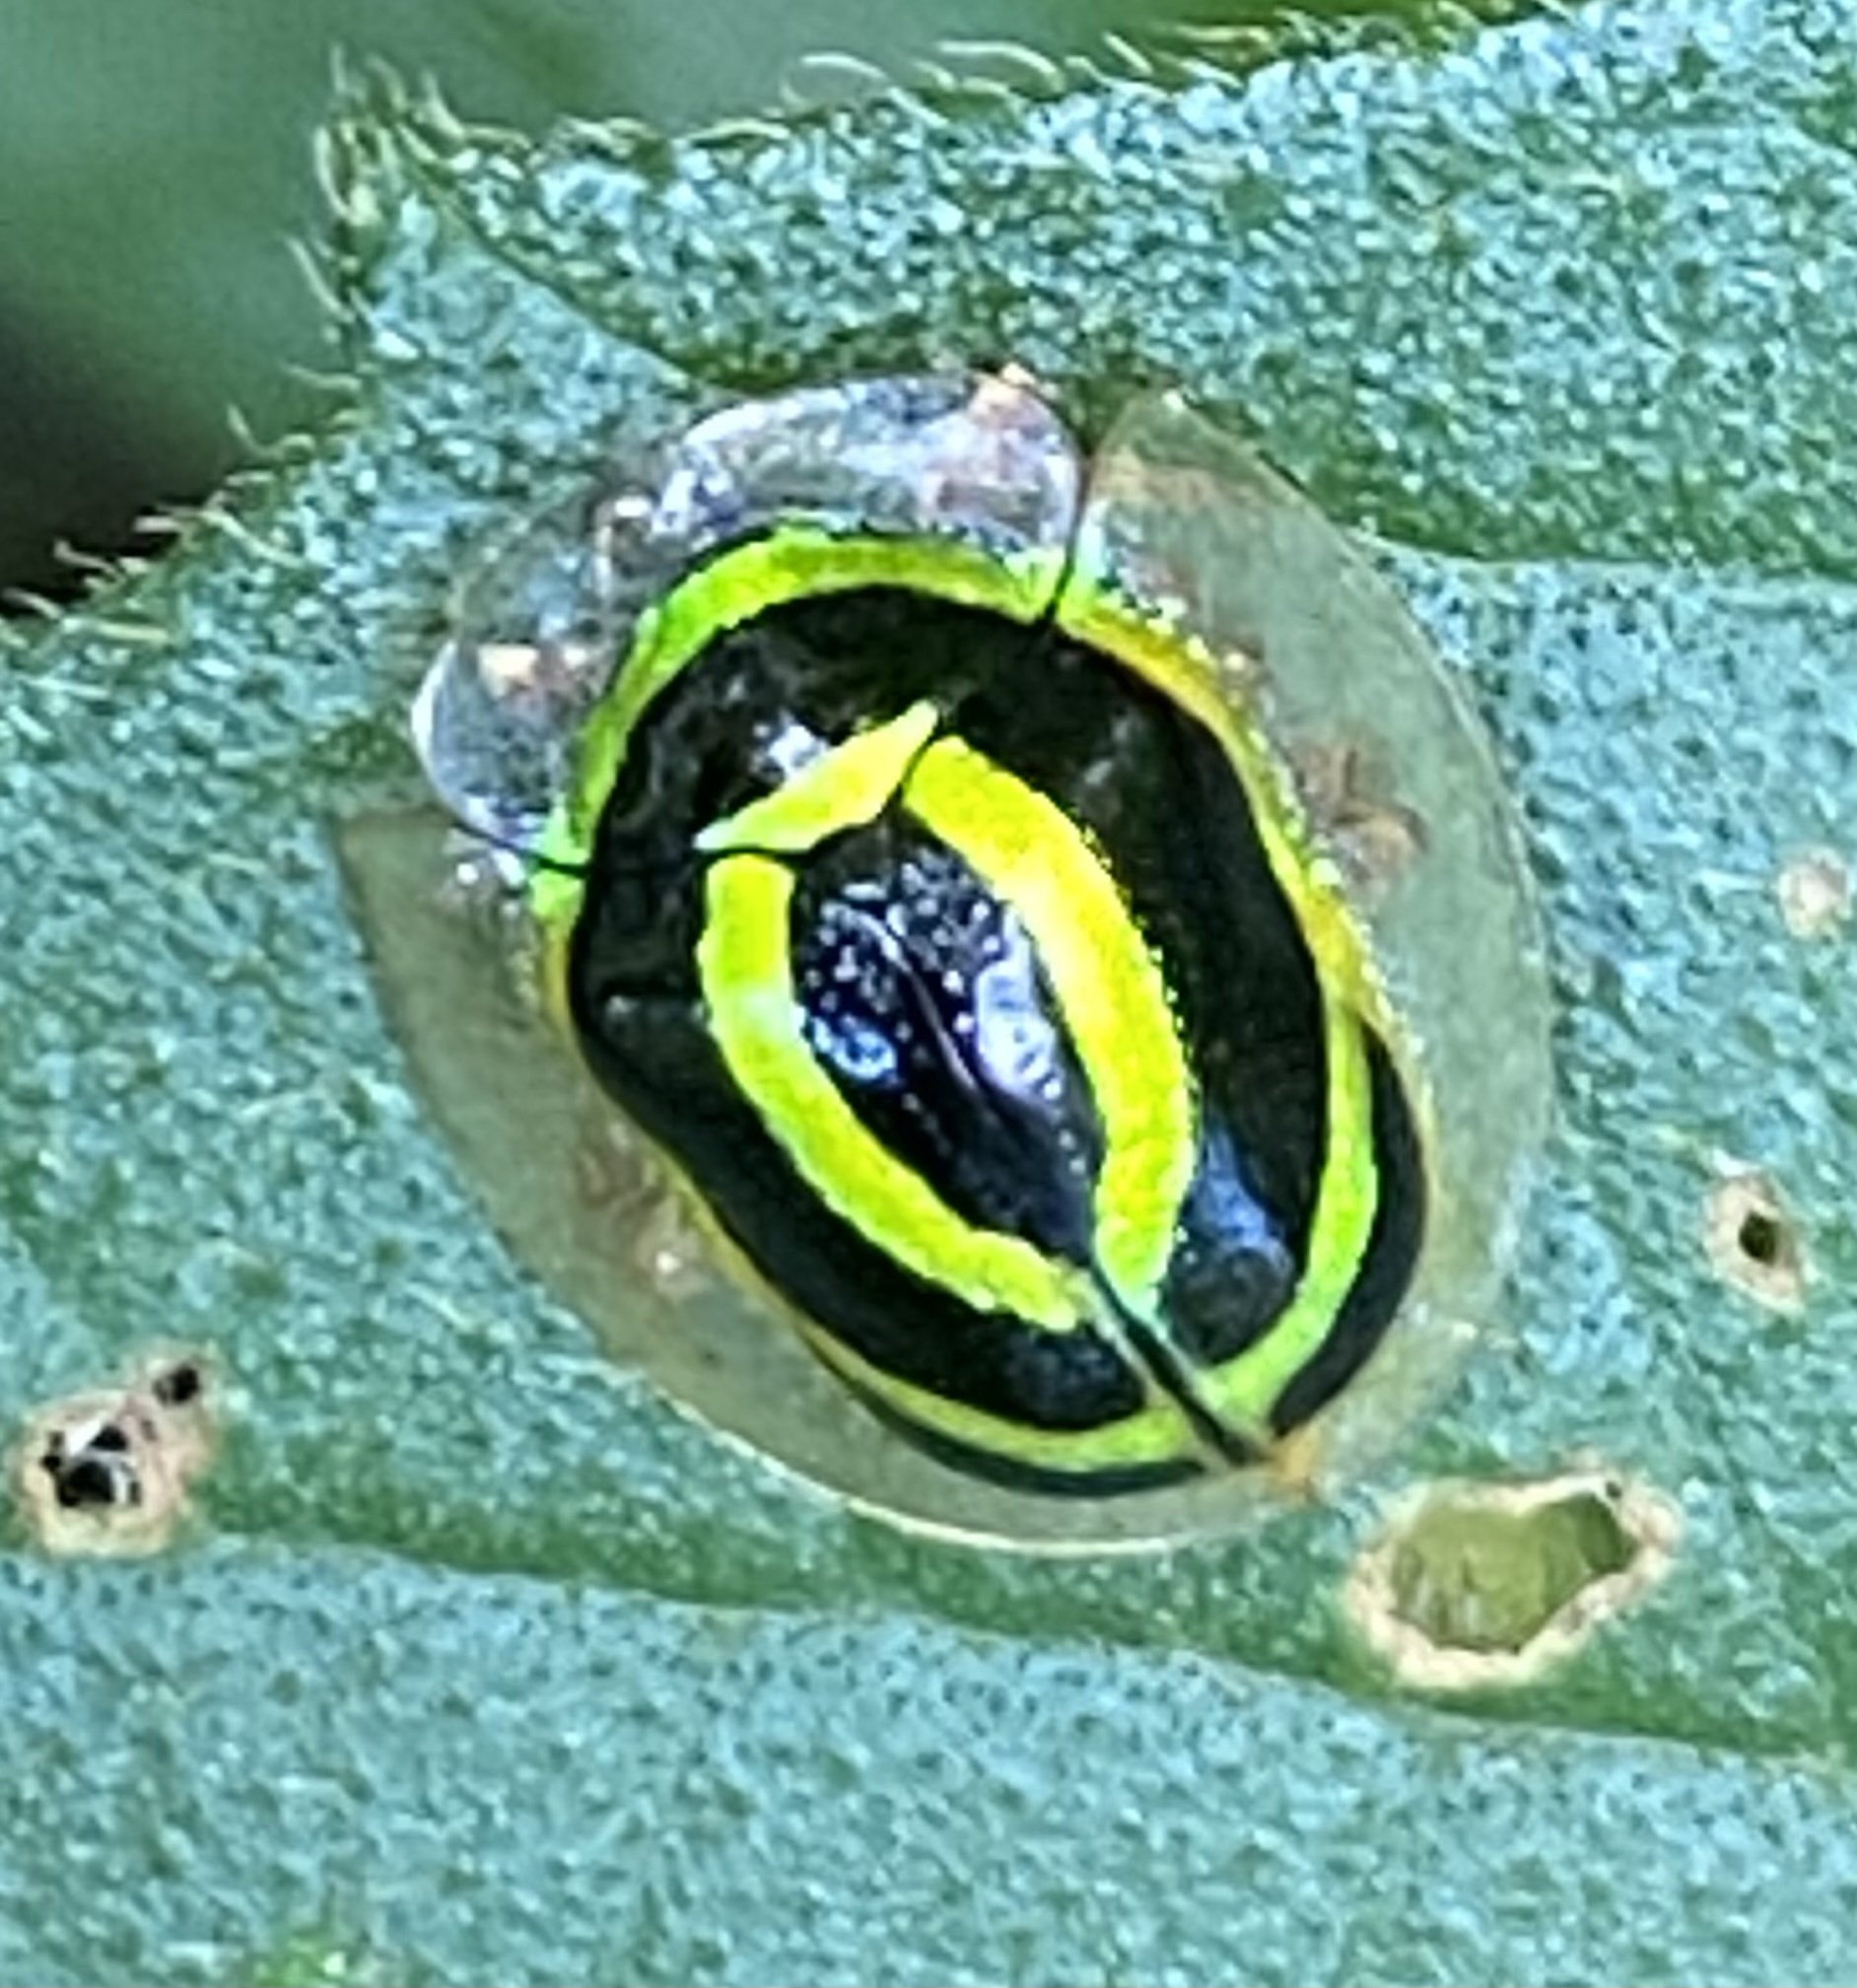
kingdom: Animalia
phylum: Arthropoda
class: Insecta
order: Coleoptera
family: Chrysomelidae
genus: Coptocycla
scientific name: Coptocycla arcuata
